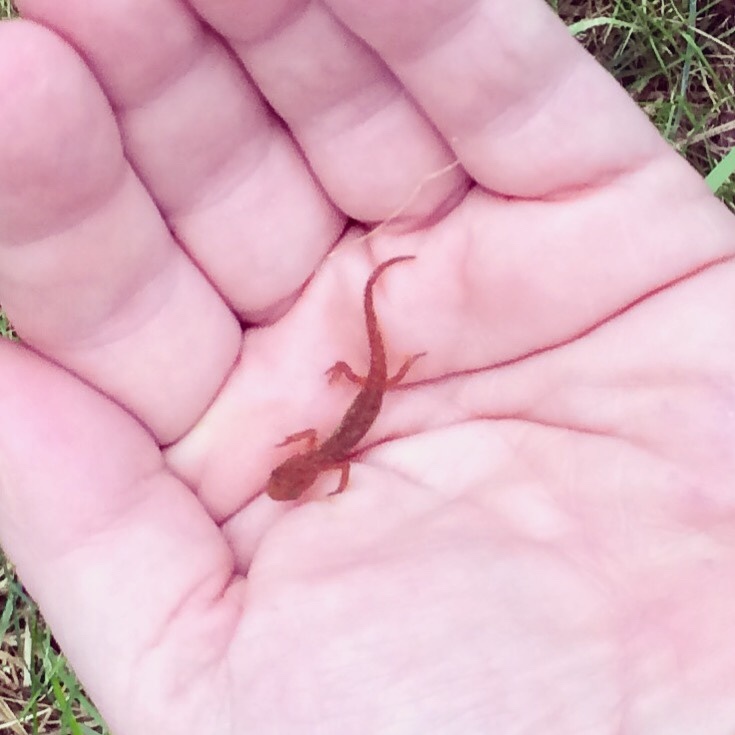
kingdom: Animalia
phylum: Chordata
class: Amphibia
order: Caudata
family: Salamandridae
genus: Notophthalmus
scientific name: Notophthalmus viridescens
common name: Eastern newt
